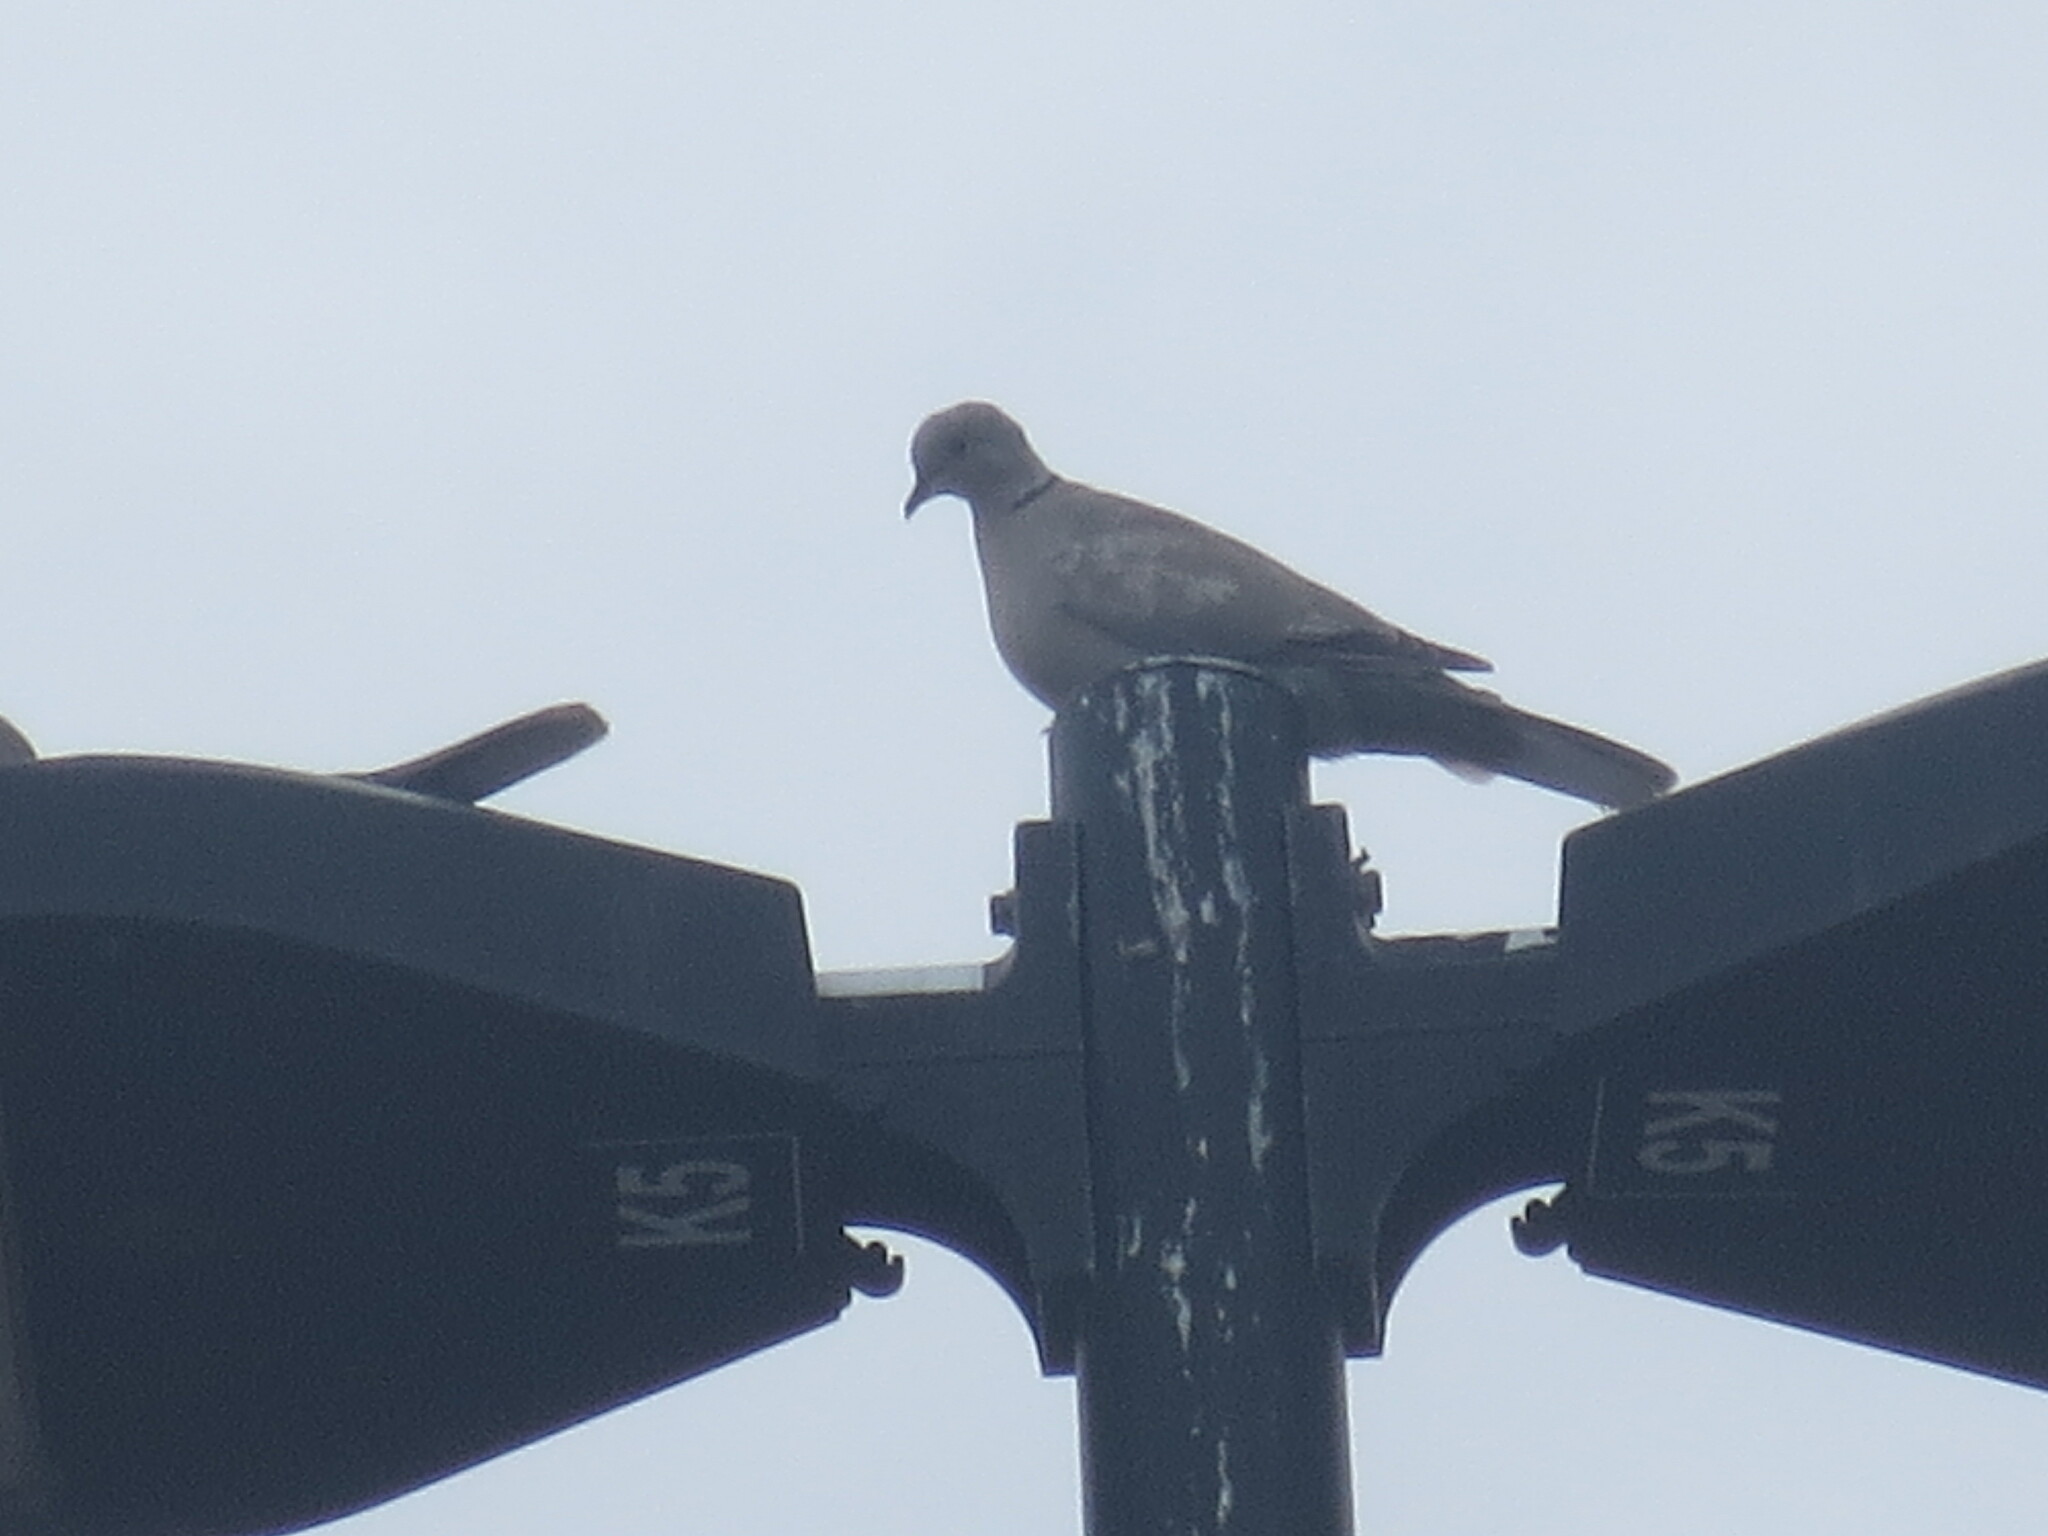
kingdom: Animalia
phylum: Chordata
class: Aves
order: Columbiformes
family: Columbidae
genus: Streptopelia
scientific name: Streptopelia decaocto
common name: Eurasian collared dove
